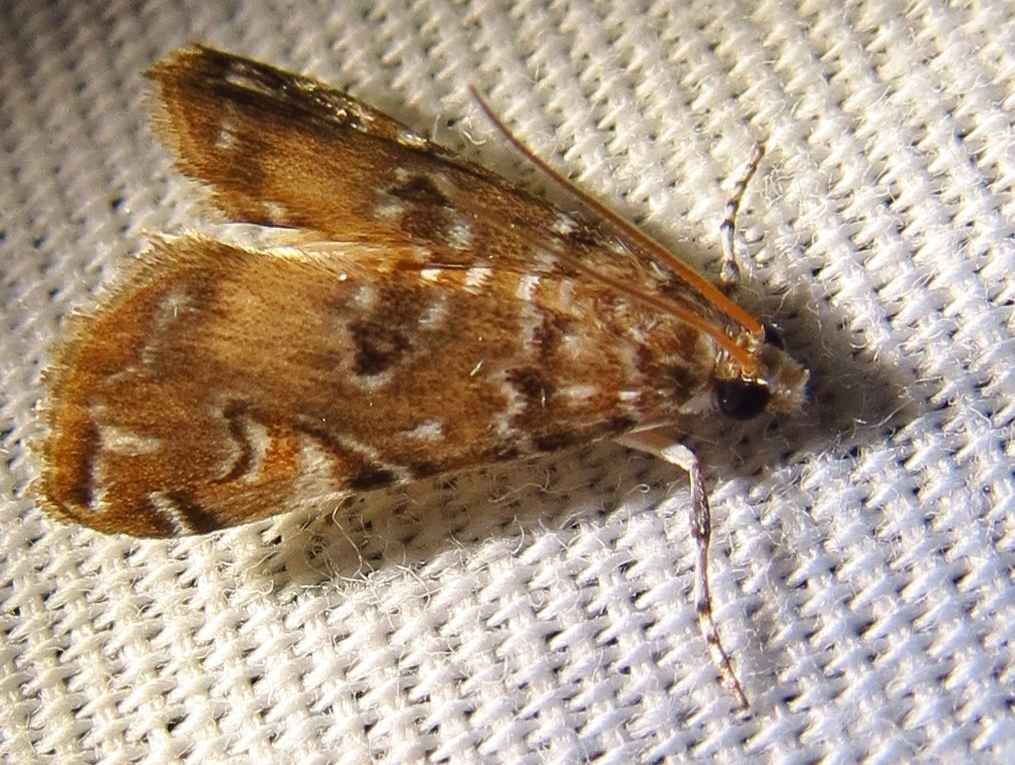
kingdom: Animalia
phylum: Arthropoda
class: Insecta
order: Lepidoptera
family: Crambidae
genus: Elophila
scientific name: Elophila gyralis
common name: Waterlily borer moth
